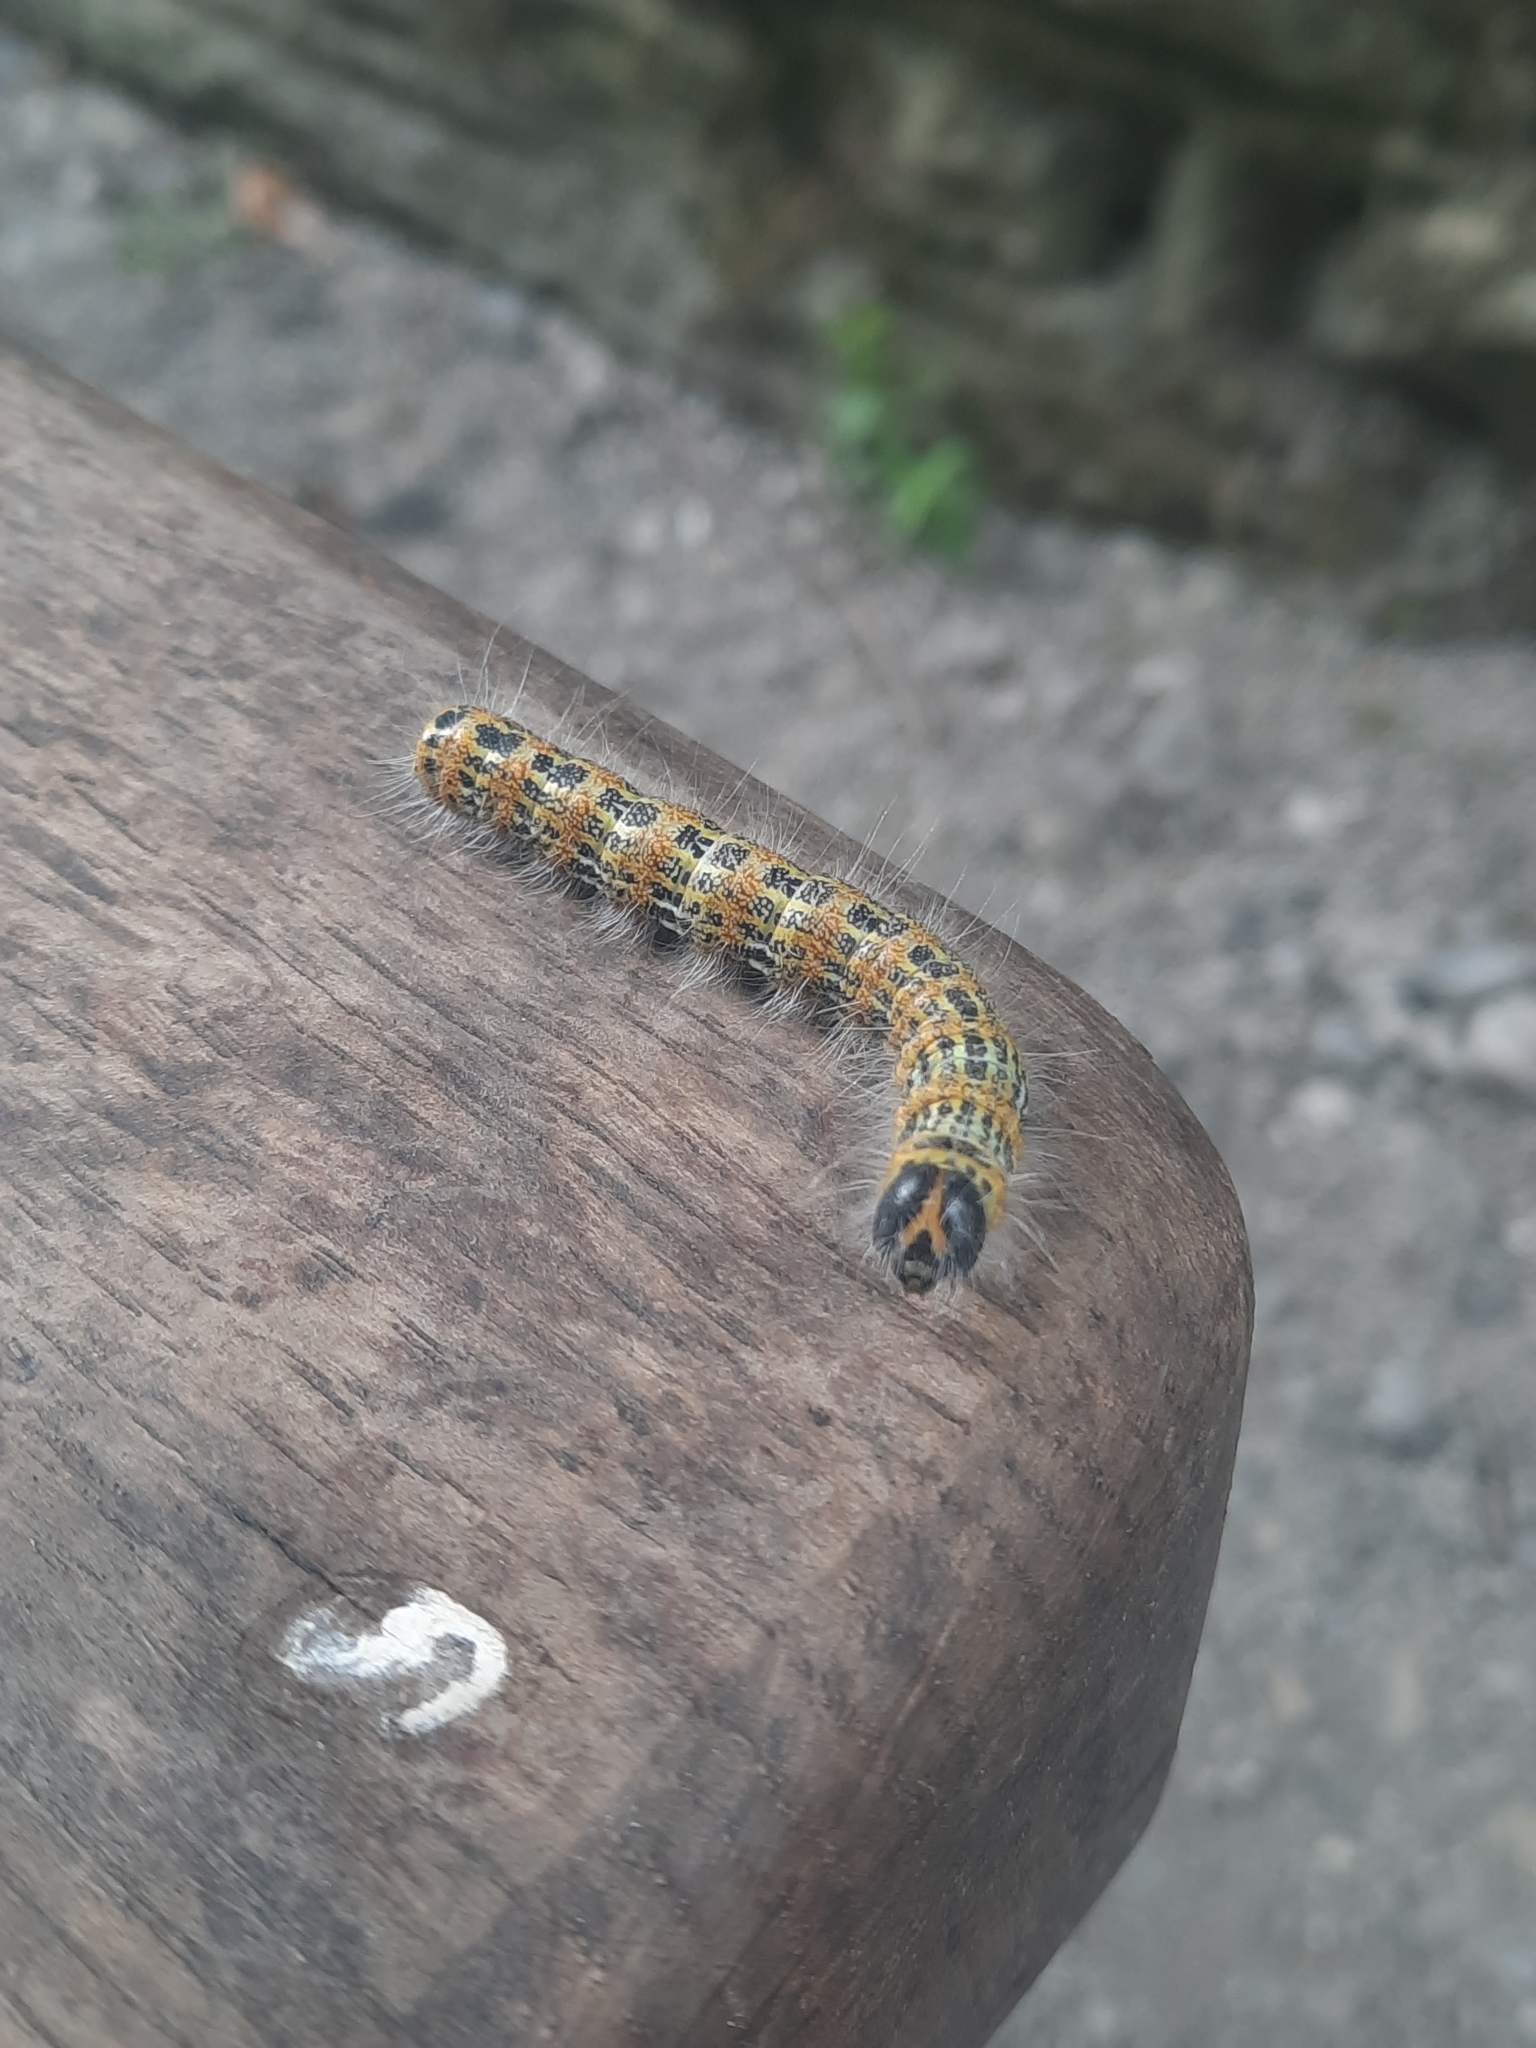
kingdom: Animalia
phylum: Arthropoda
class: Insecta
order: Lepidoptera
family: Notodontidae
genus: Phalera
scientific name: Phalera bucephala
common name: Buff-tip
